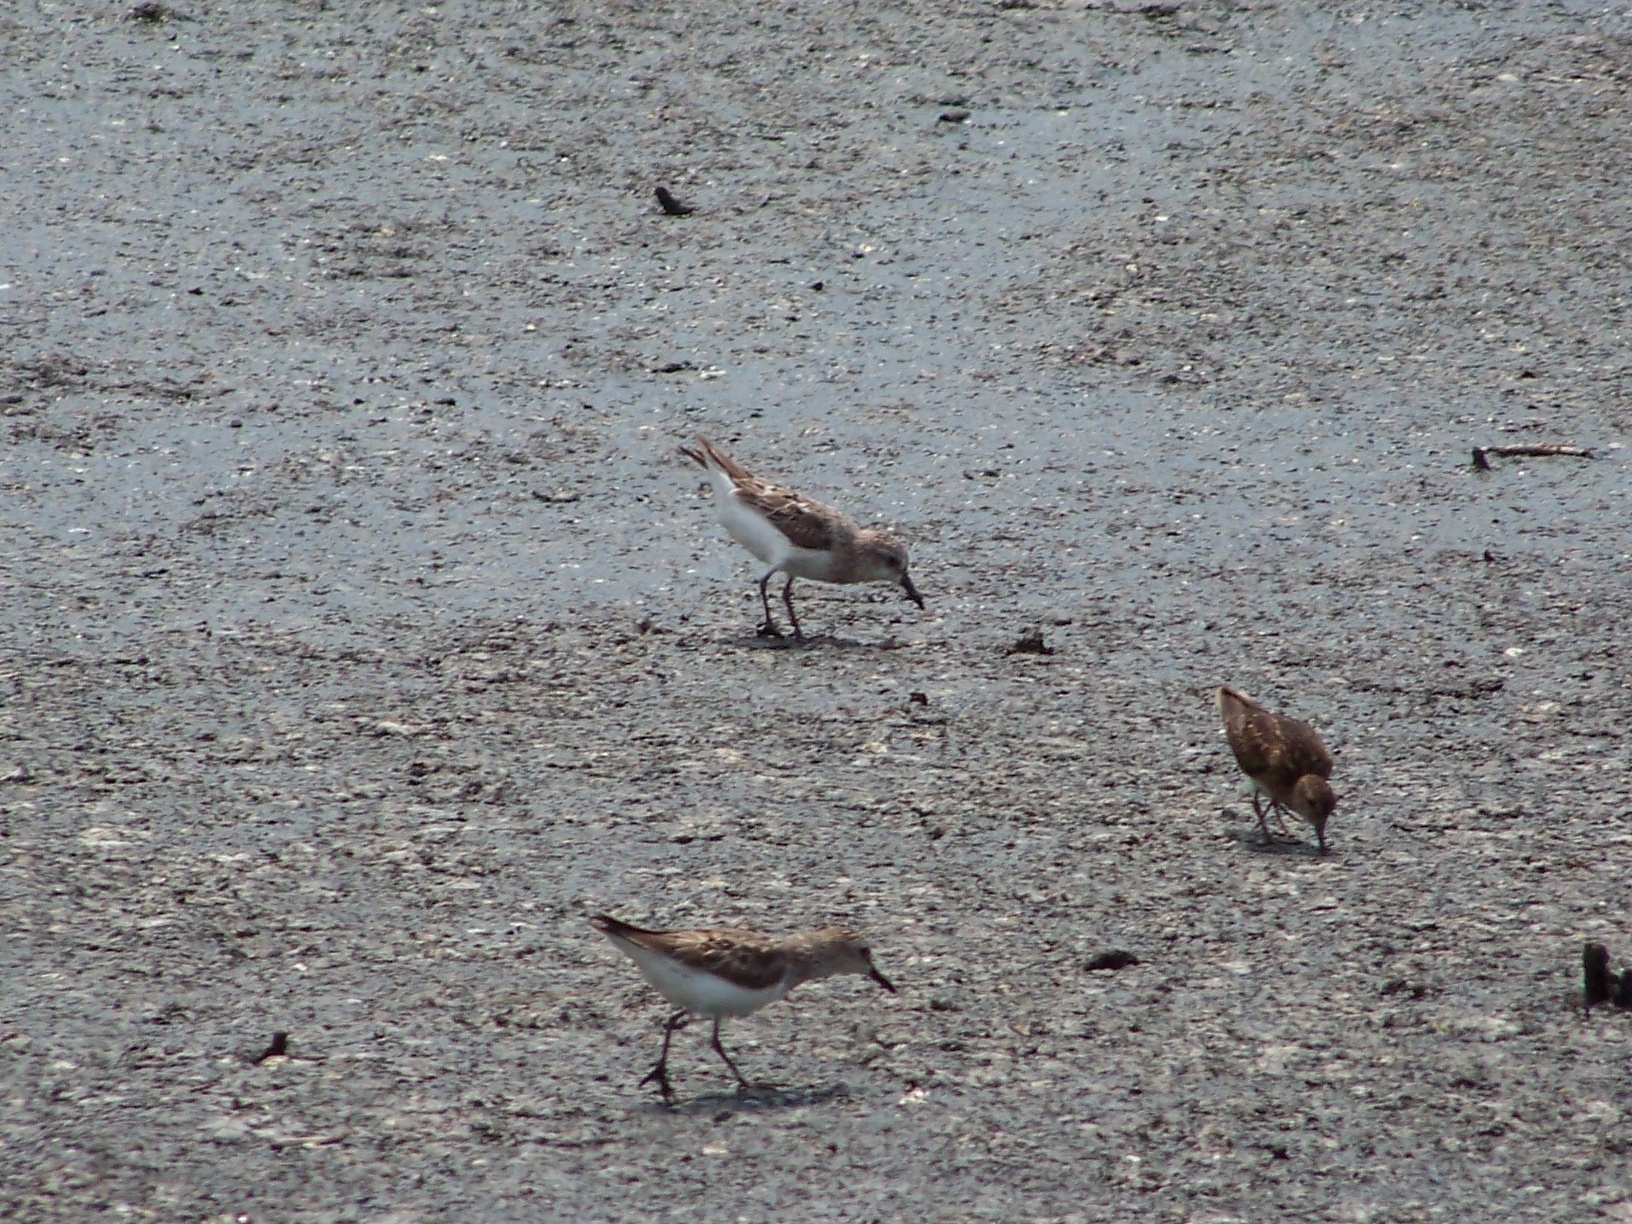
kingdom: Animalia
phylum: Chordata
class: Aves
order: Charadriiformes
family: Scolopacidae
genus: Calidris
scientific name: Calidris pusilla
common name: Semipalmated sandpiper
